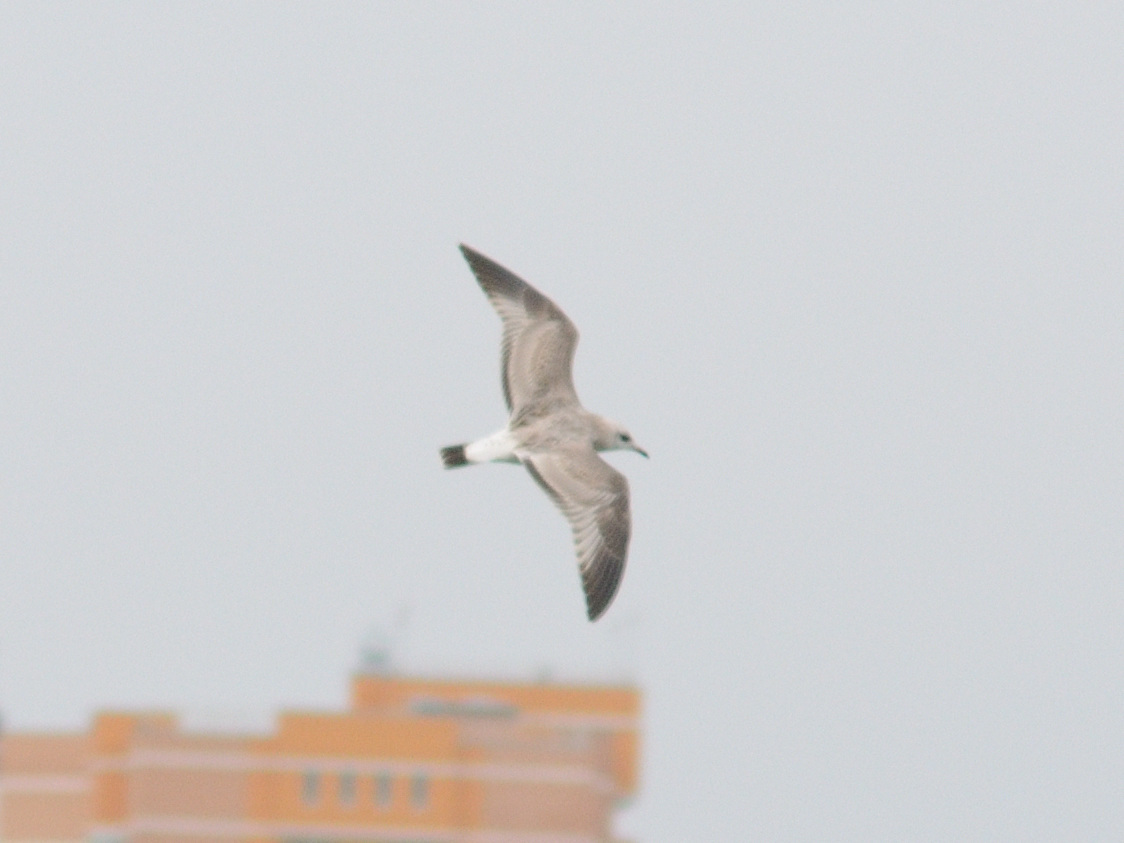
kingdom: Animalia
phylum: Chordata
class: Aves
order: Charadriiformes
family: Laridae
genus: Larus
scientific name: Larus canus
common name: Mew gull
